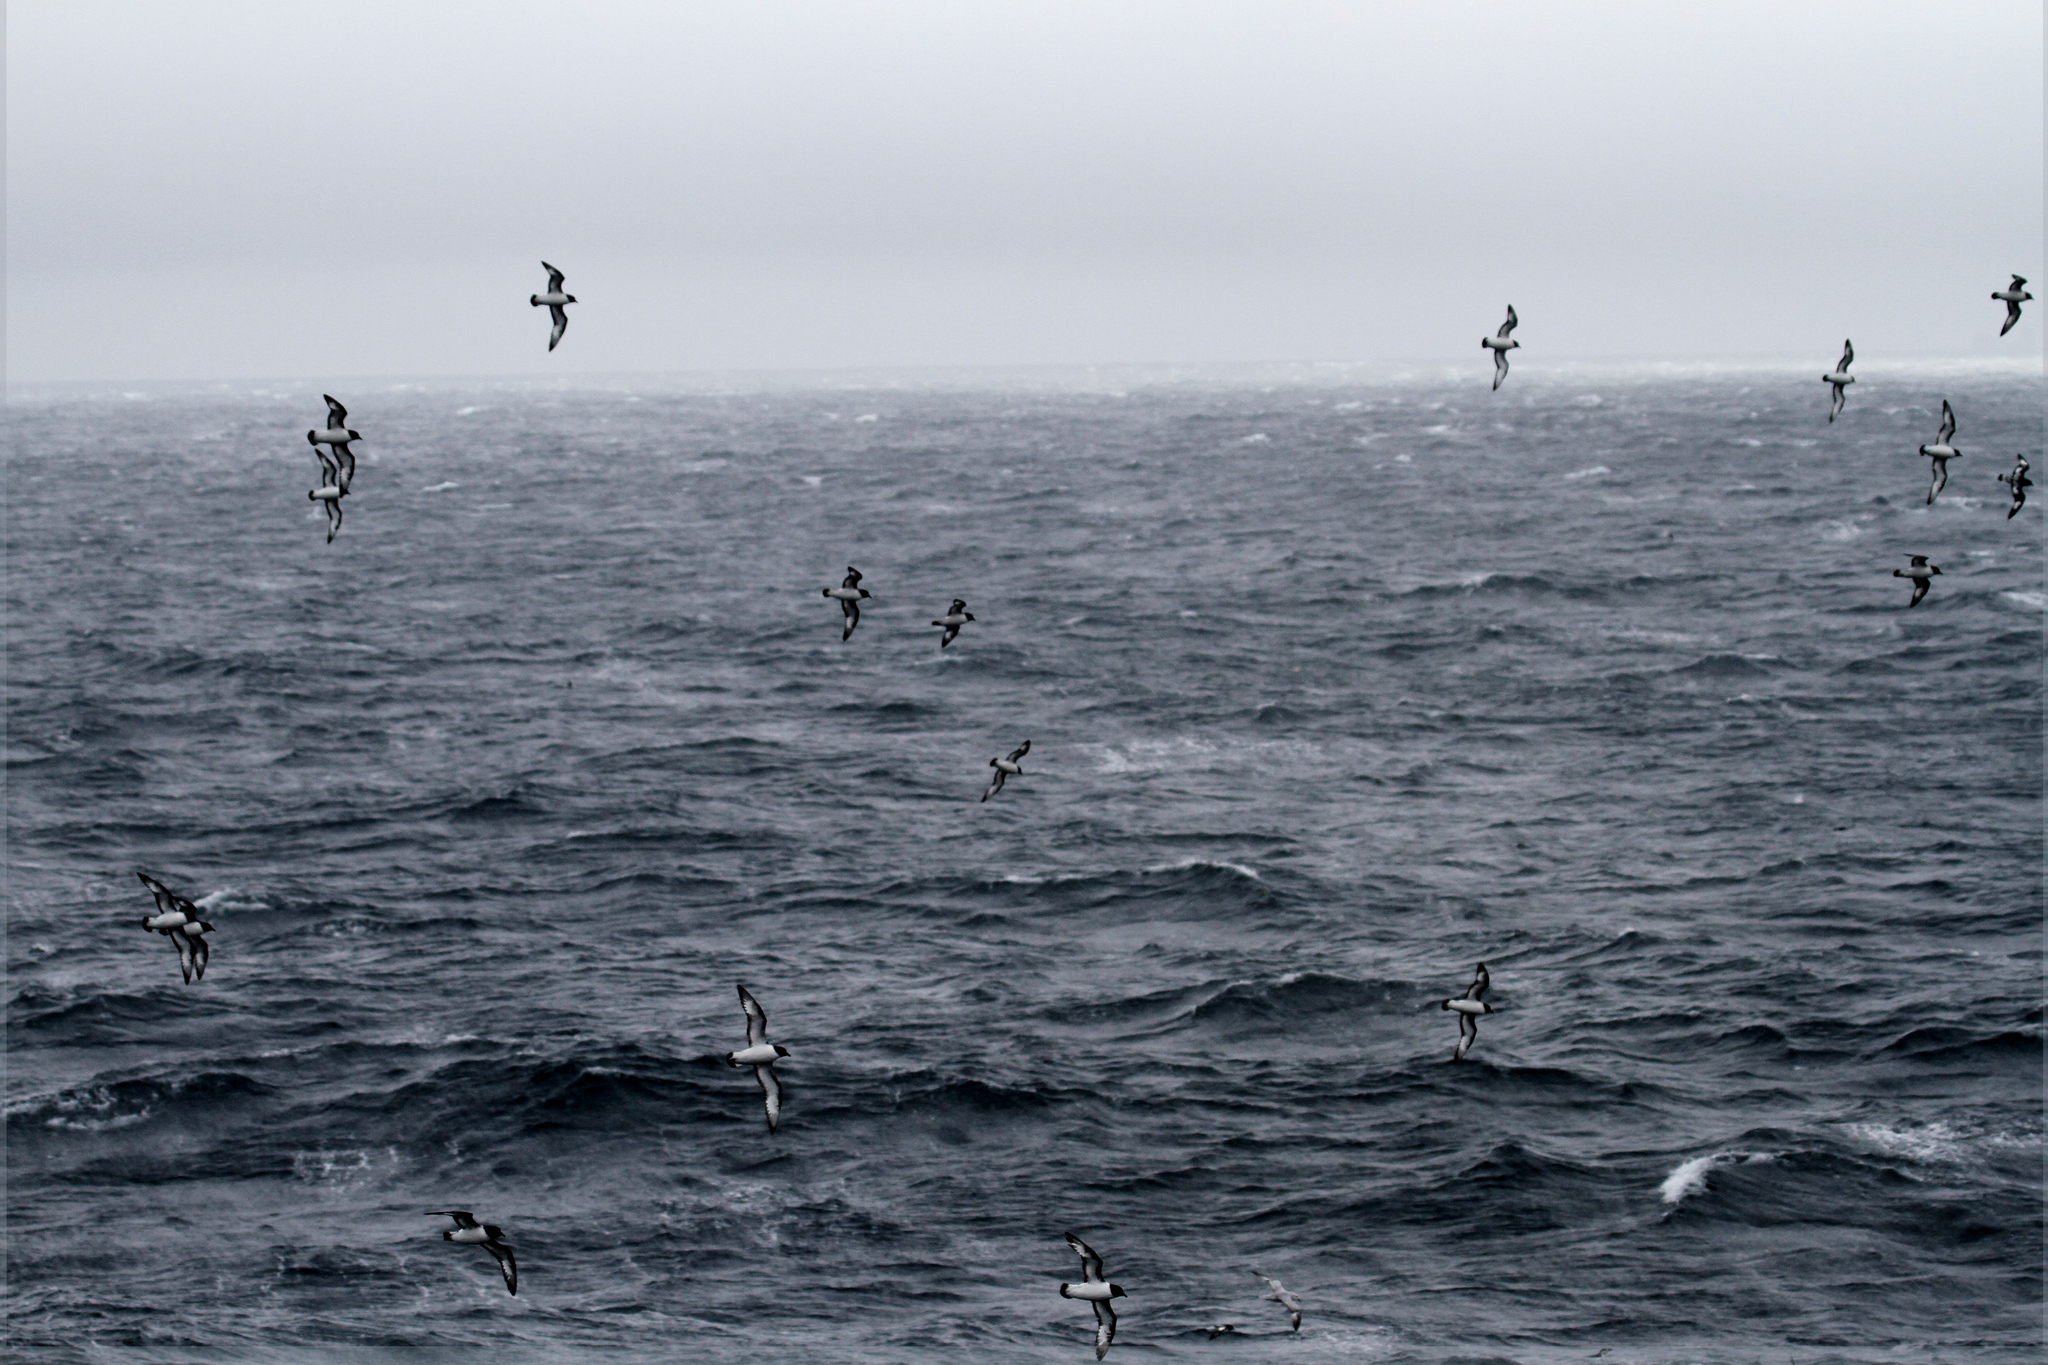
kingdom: Animalia
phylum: Chordata
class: Aves
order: Procellariiformes
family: Procellariidae
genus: Daption
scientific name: Daption capense
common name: Cape petrel
